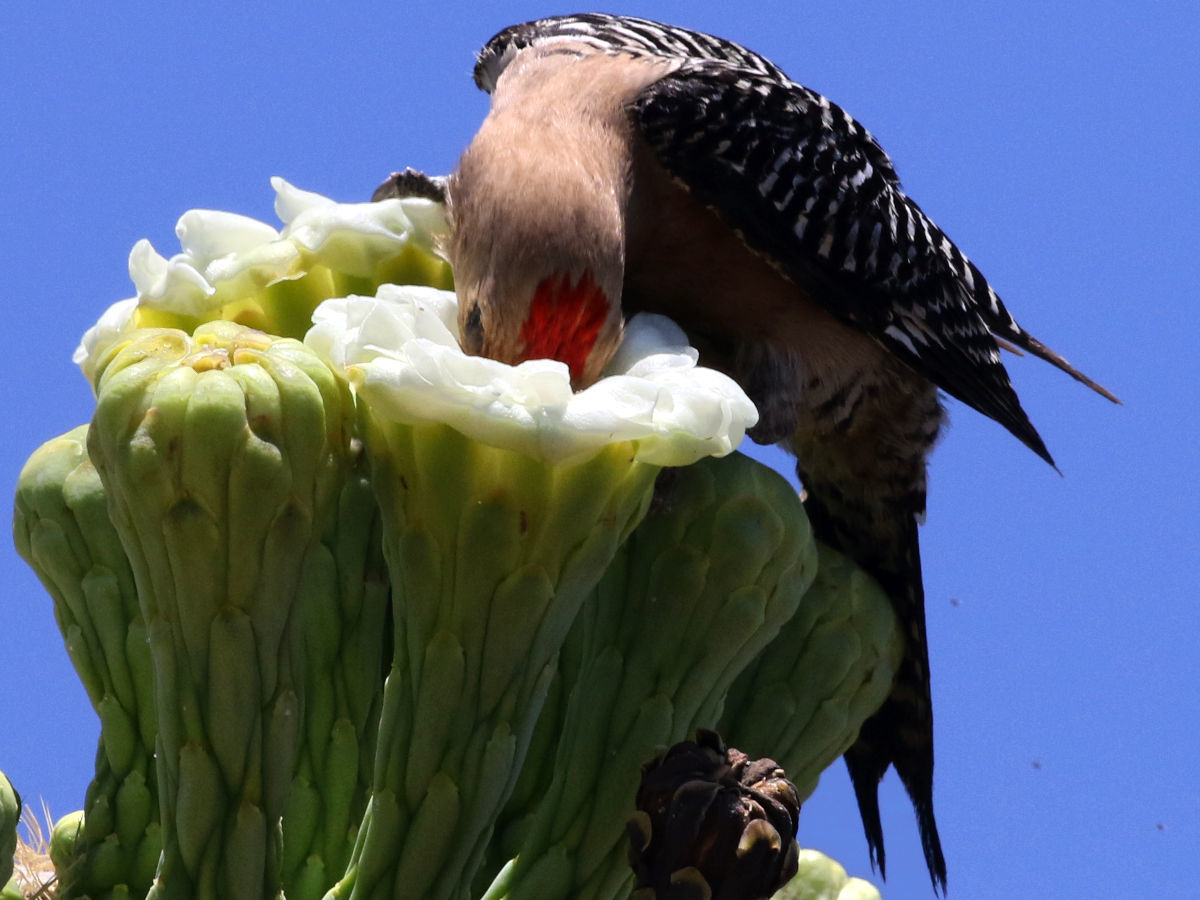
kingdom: Animalia
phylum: Chordata
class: Aves
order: Piciformes
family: Picidae
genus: Melanerpes
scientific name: Melanerpes uropygialis
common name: Gila woodpecker
